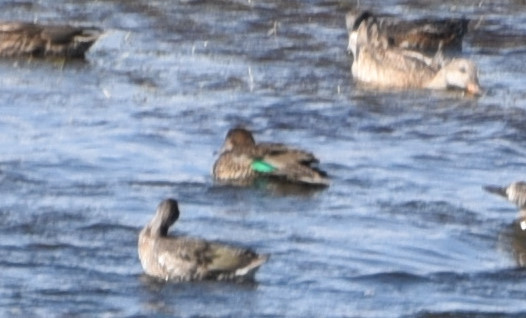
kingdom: Animalia
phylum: Chordata
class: Aves
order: Anseriformes
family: Anatidae
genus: Anas
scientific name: Anas crecca
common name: Eurasian teal
